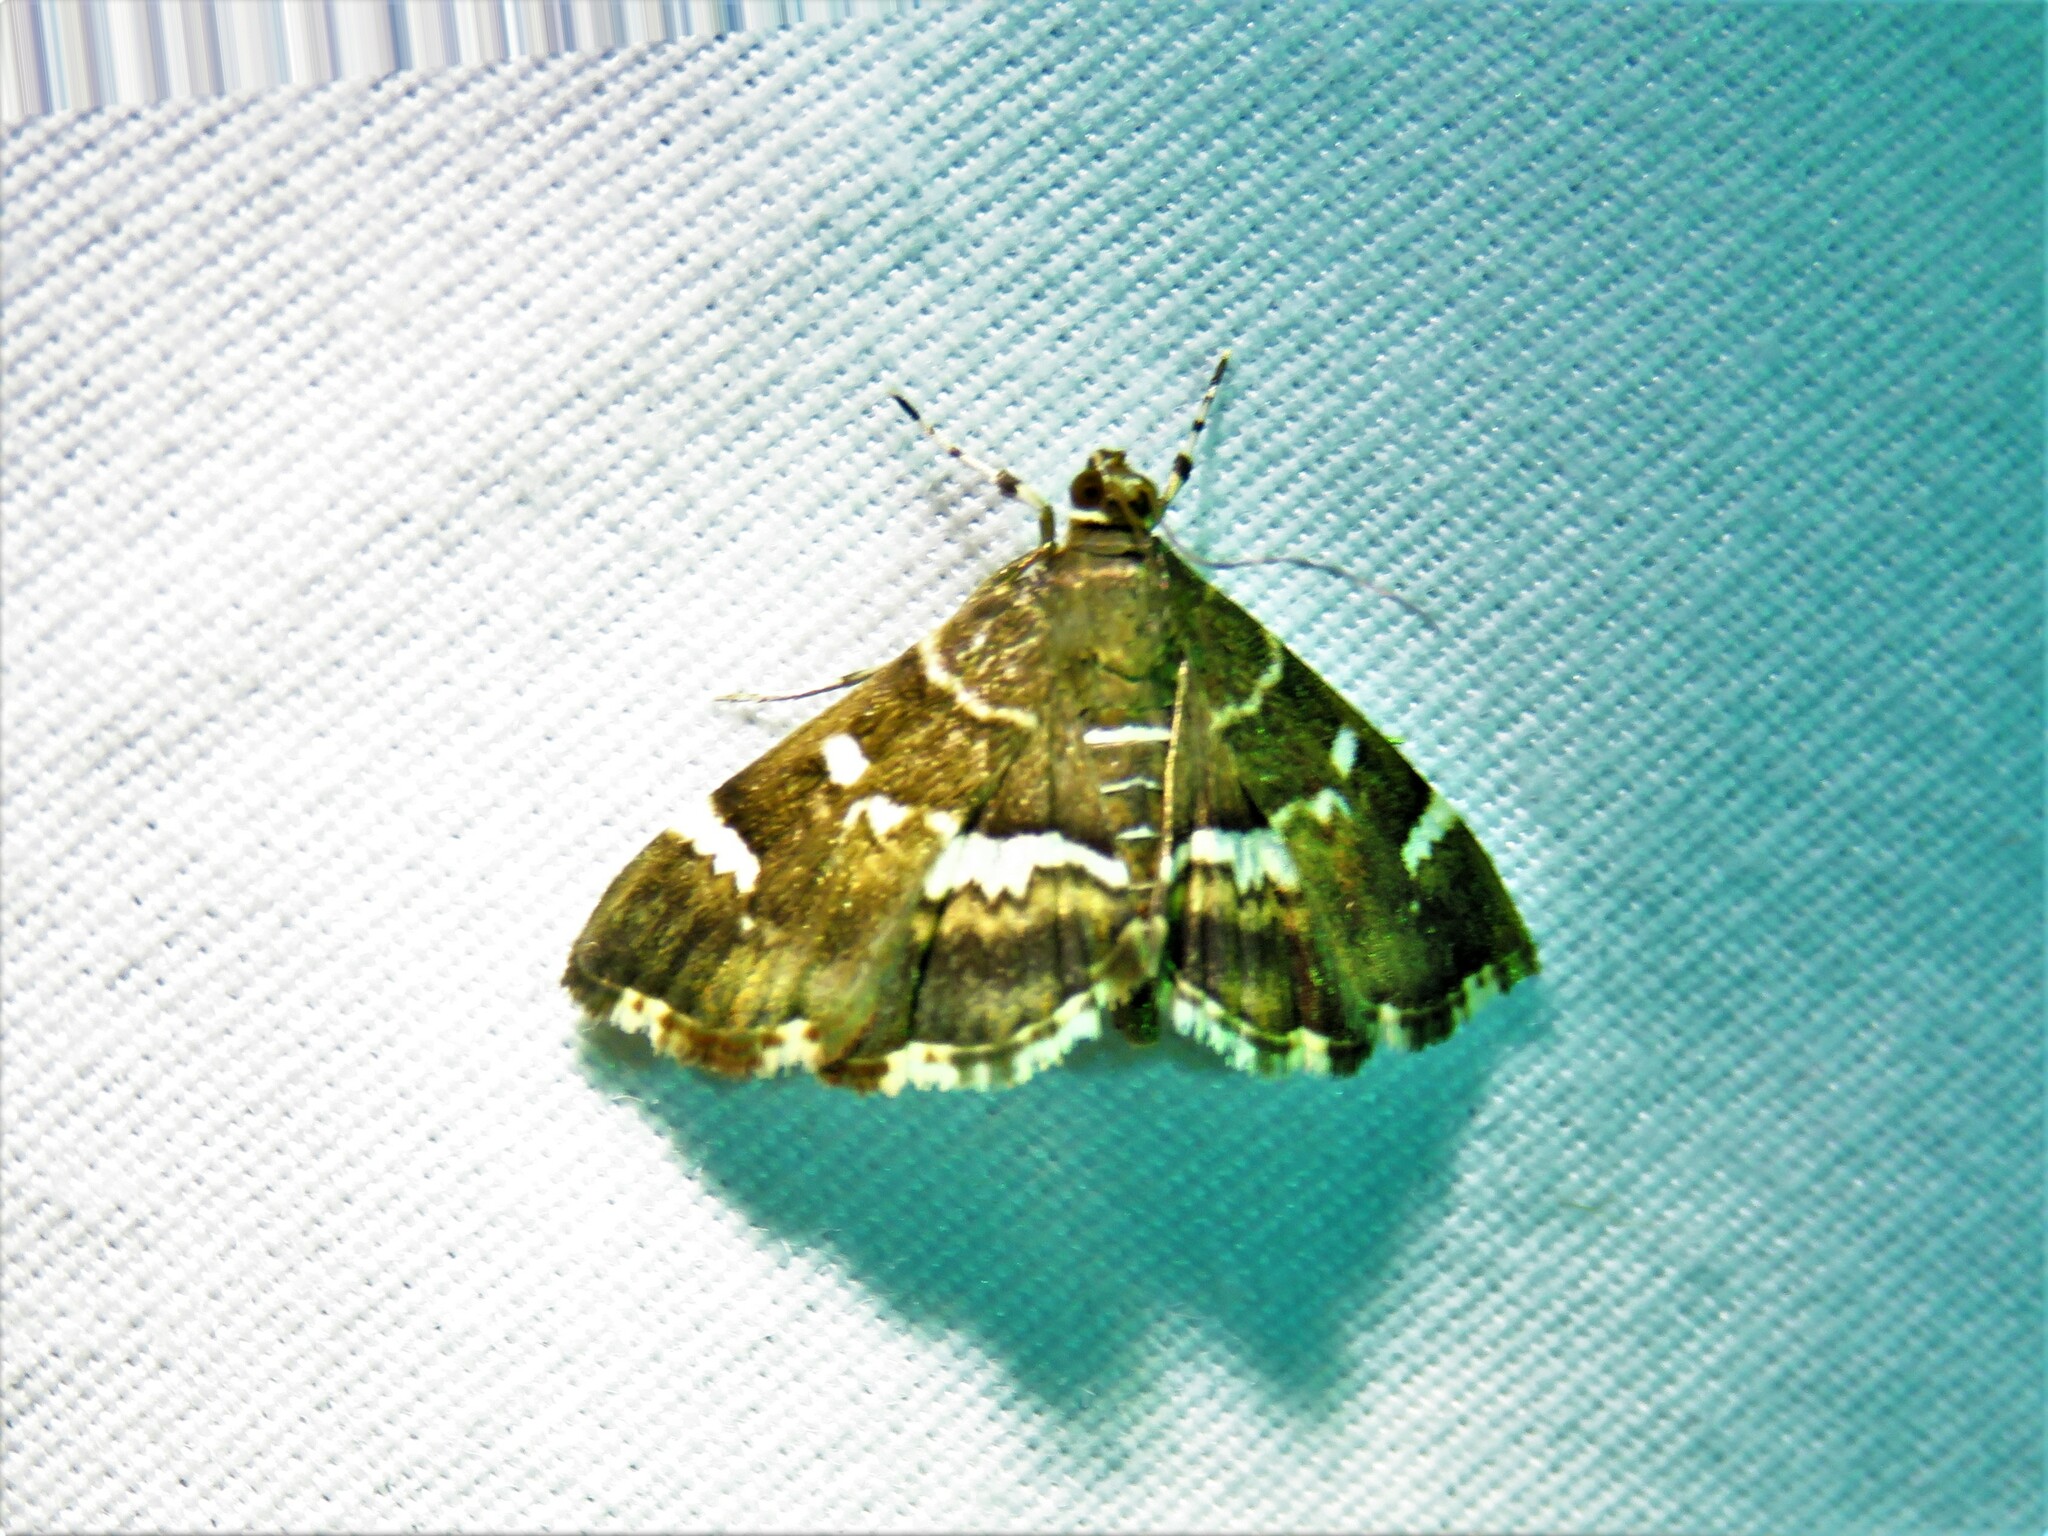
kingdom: Animalia
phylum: Arthropoda
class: Insecta
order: Lepidoptera
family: Crambidae
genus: Hymenia
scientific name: Hymenia perspectalis
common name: Spotted beet webworm
